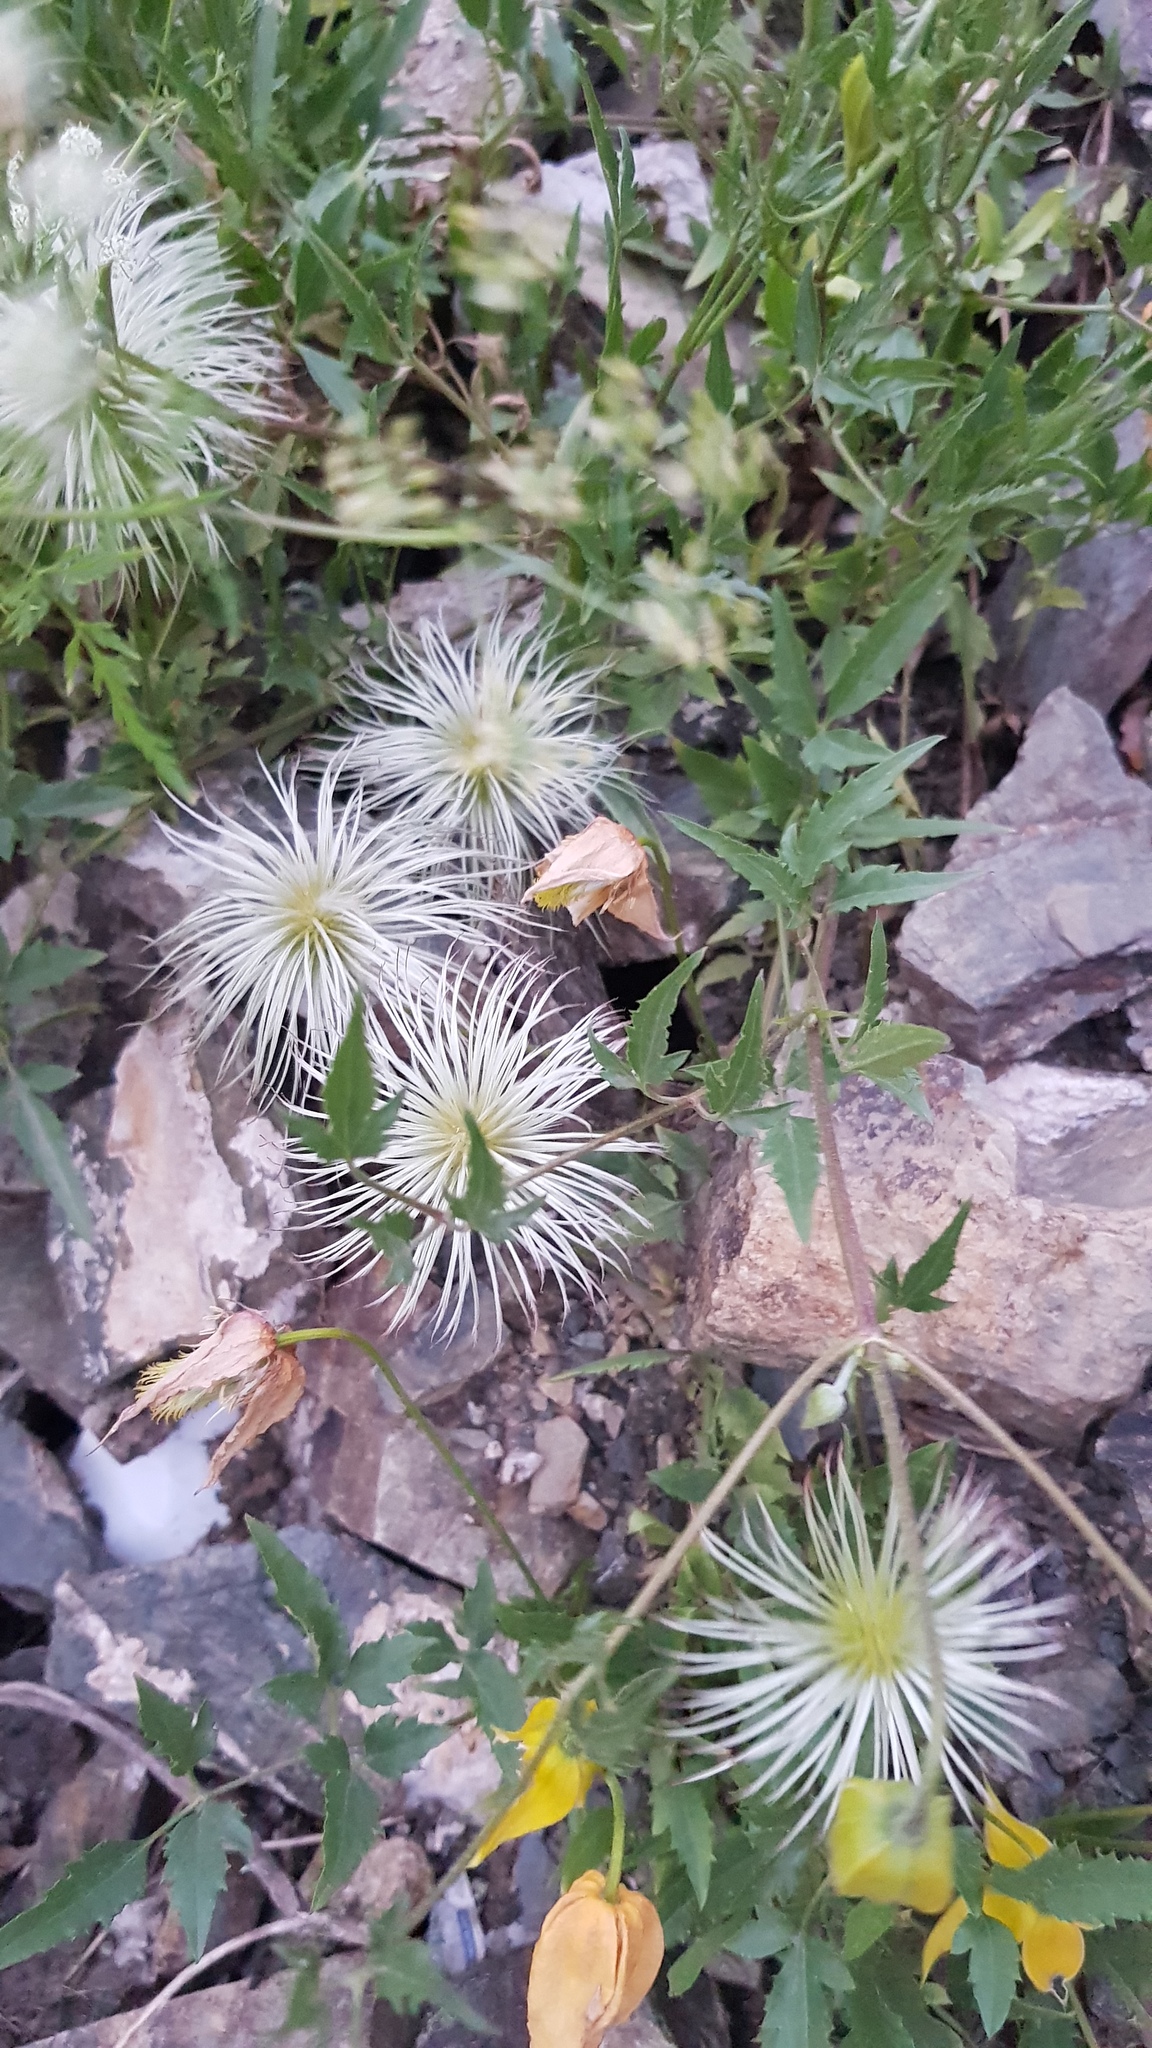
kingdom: Plantae
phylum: Tracheophyta
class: Magnoliopsida
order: Ranunculales
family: Ranunculaceae
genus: Clematis
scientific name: Clematis tangutica
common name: Orange-peel clematis
